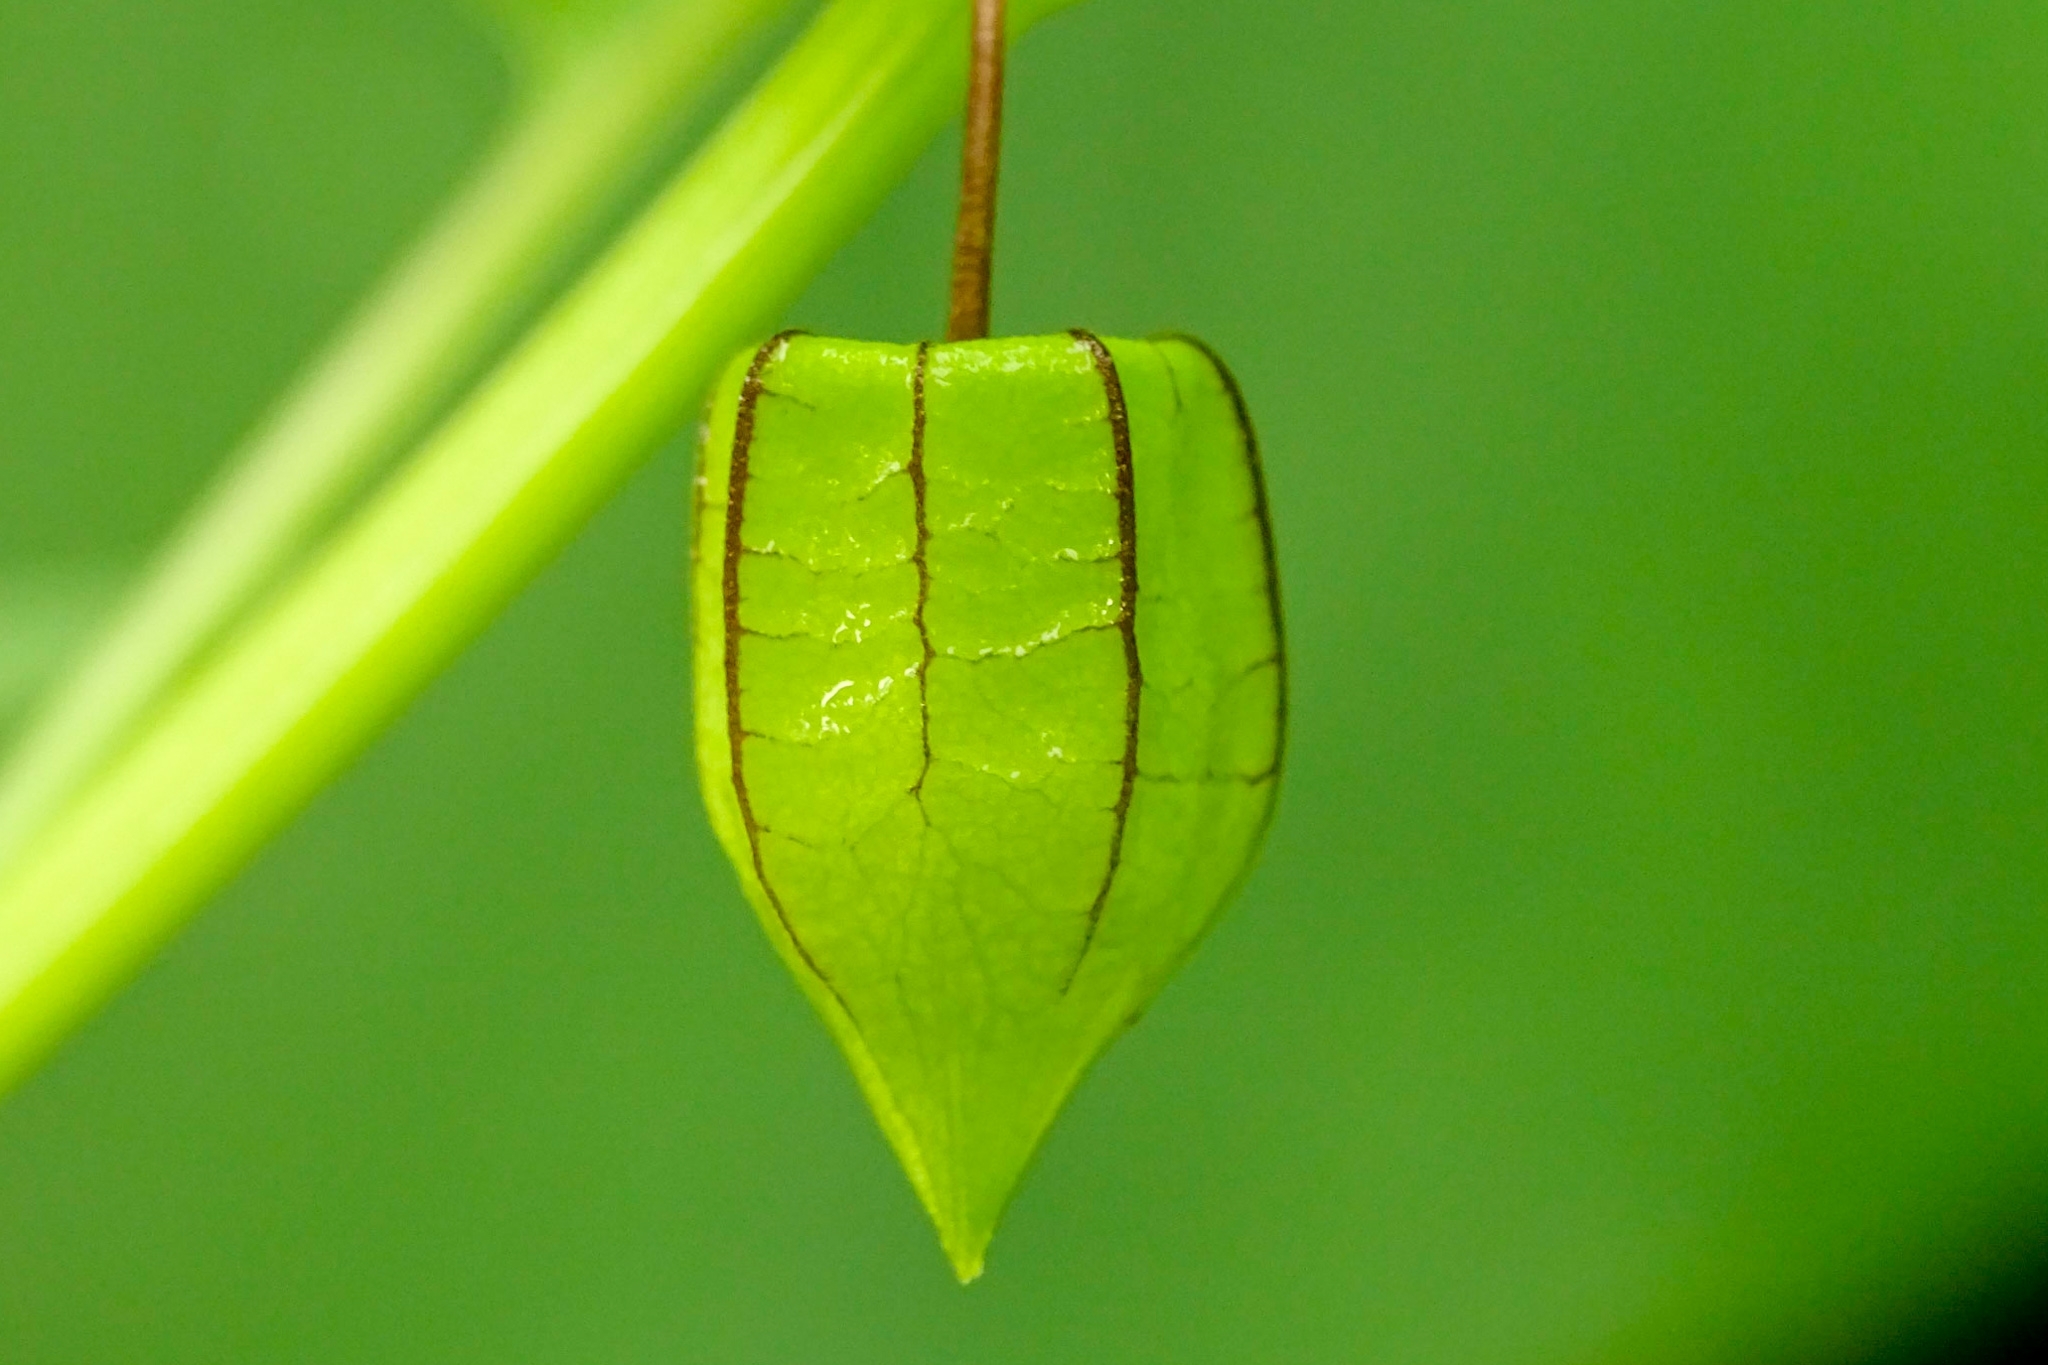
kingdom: Plantae
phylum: Tracheophyta
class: Magnoliopsida
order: Solanales
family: Solanaceae
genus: Physalis
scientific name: Physalis angulata
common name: Angular winter-cherry
